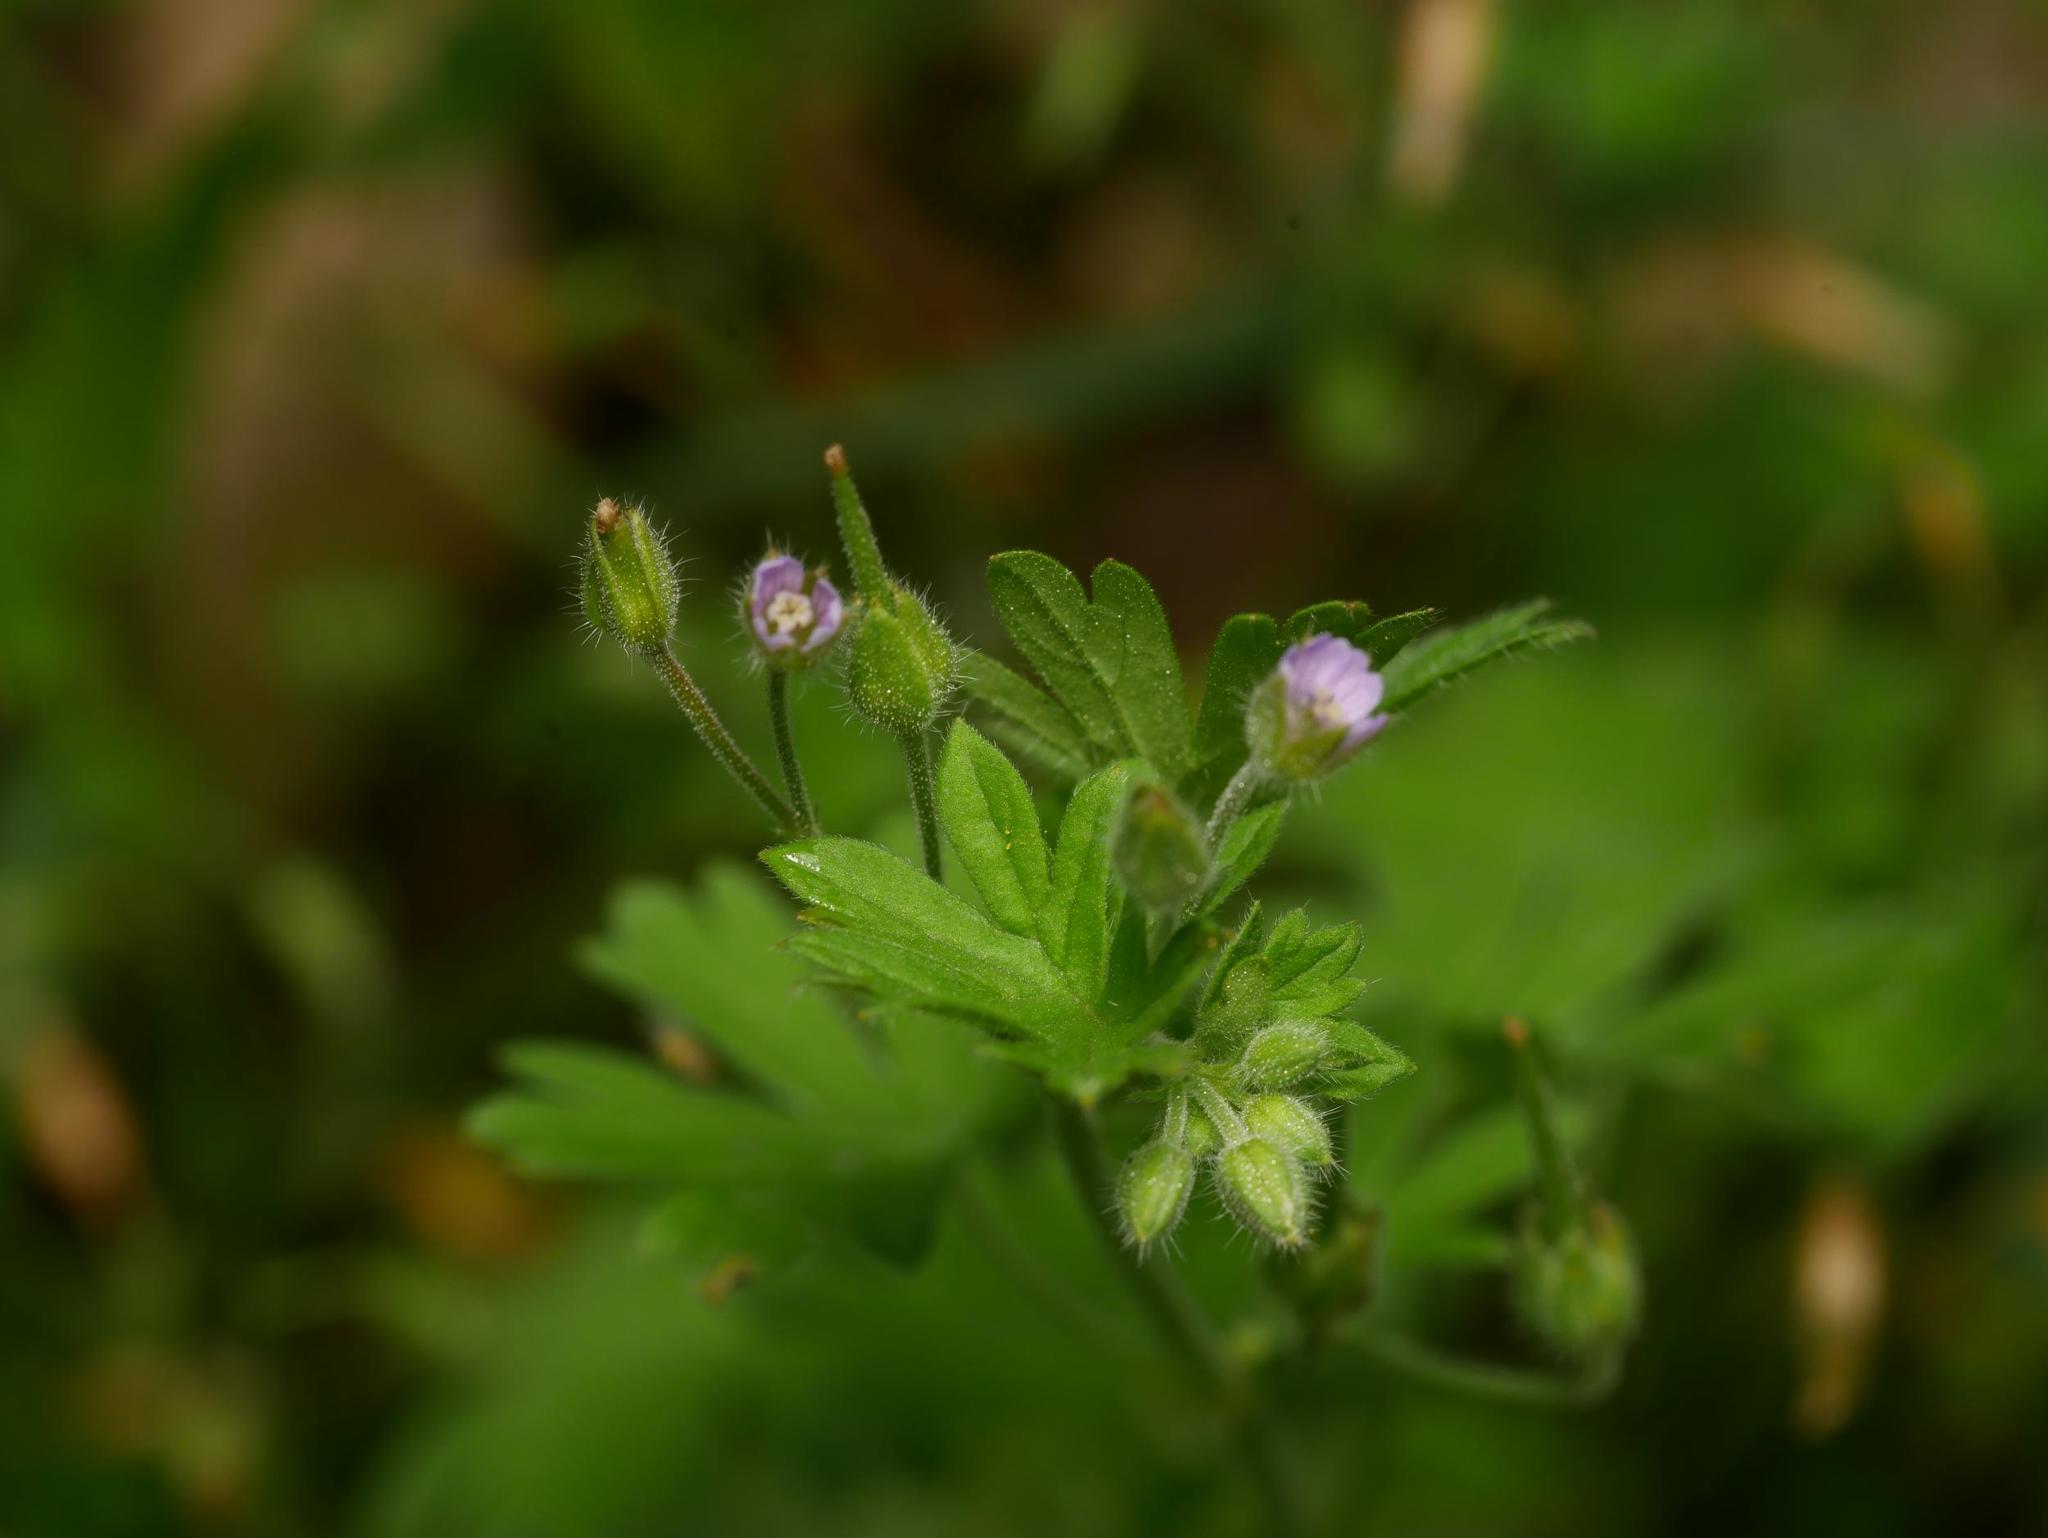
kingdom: Plantae
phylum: Tracheophyta
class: Magnoliopsida
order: Geraniales
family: Geraniaceae
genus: Geranium
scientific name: Geranium pusillum
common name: Small geranium
